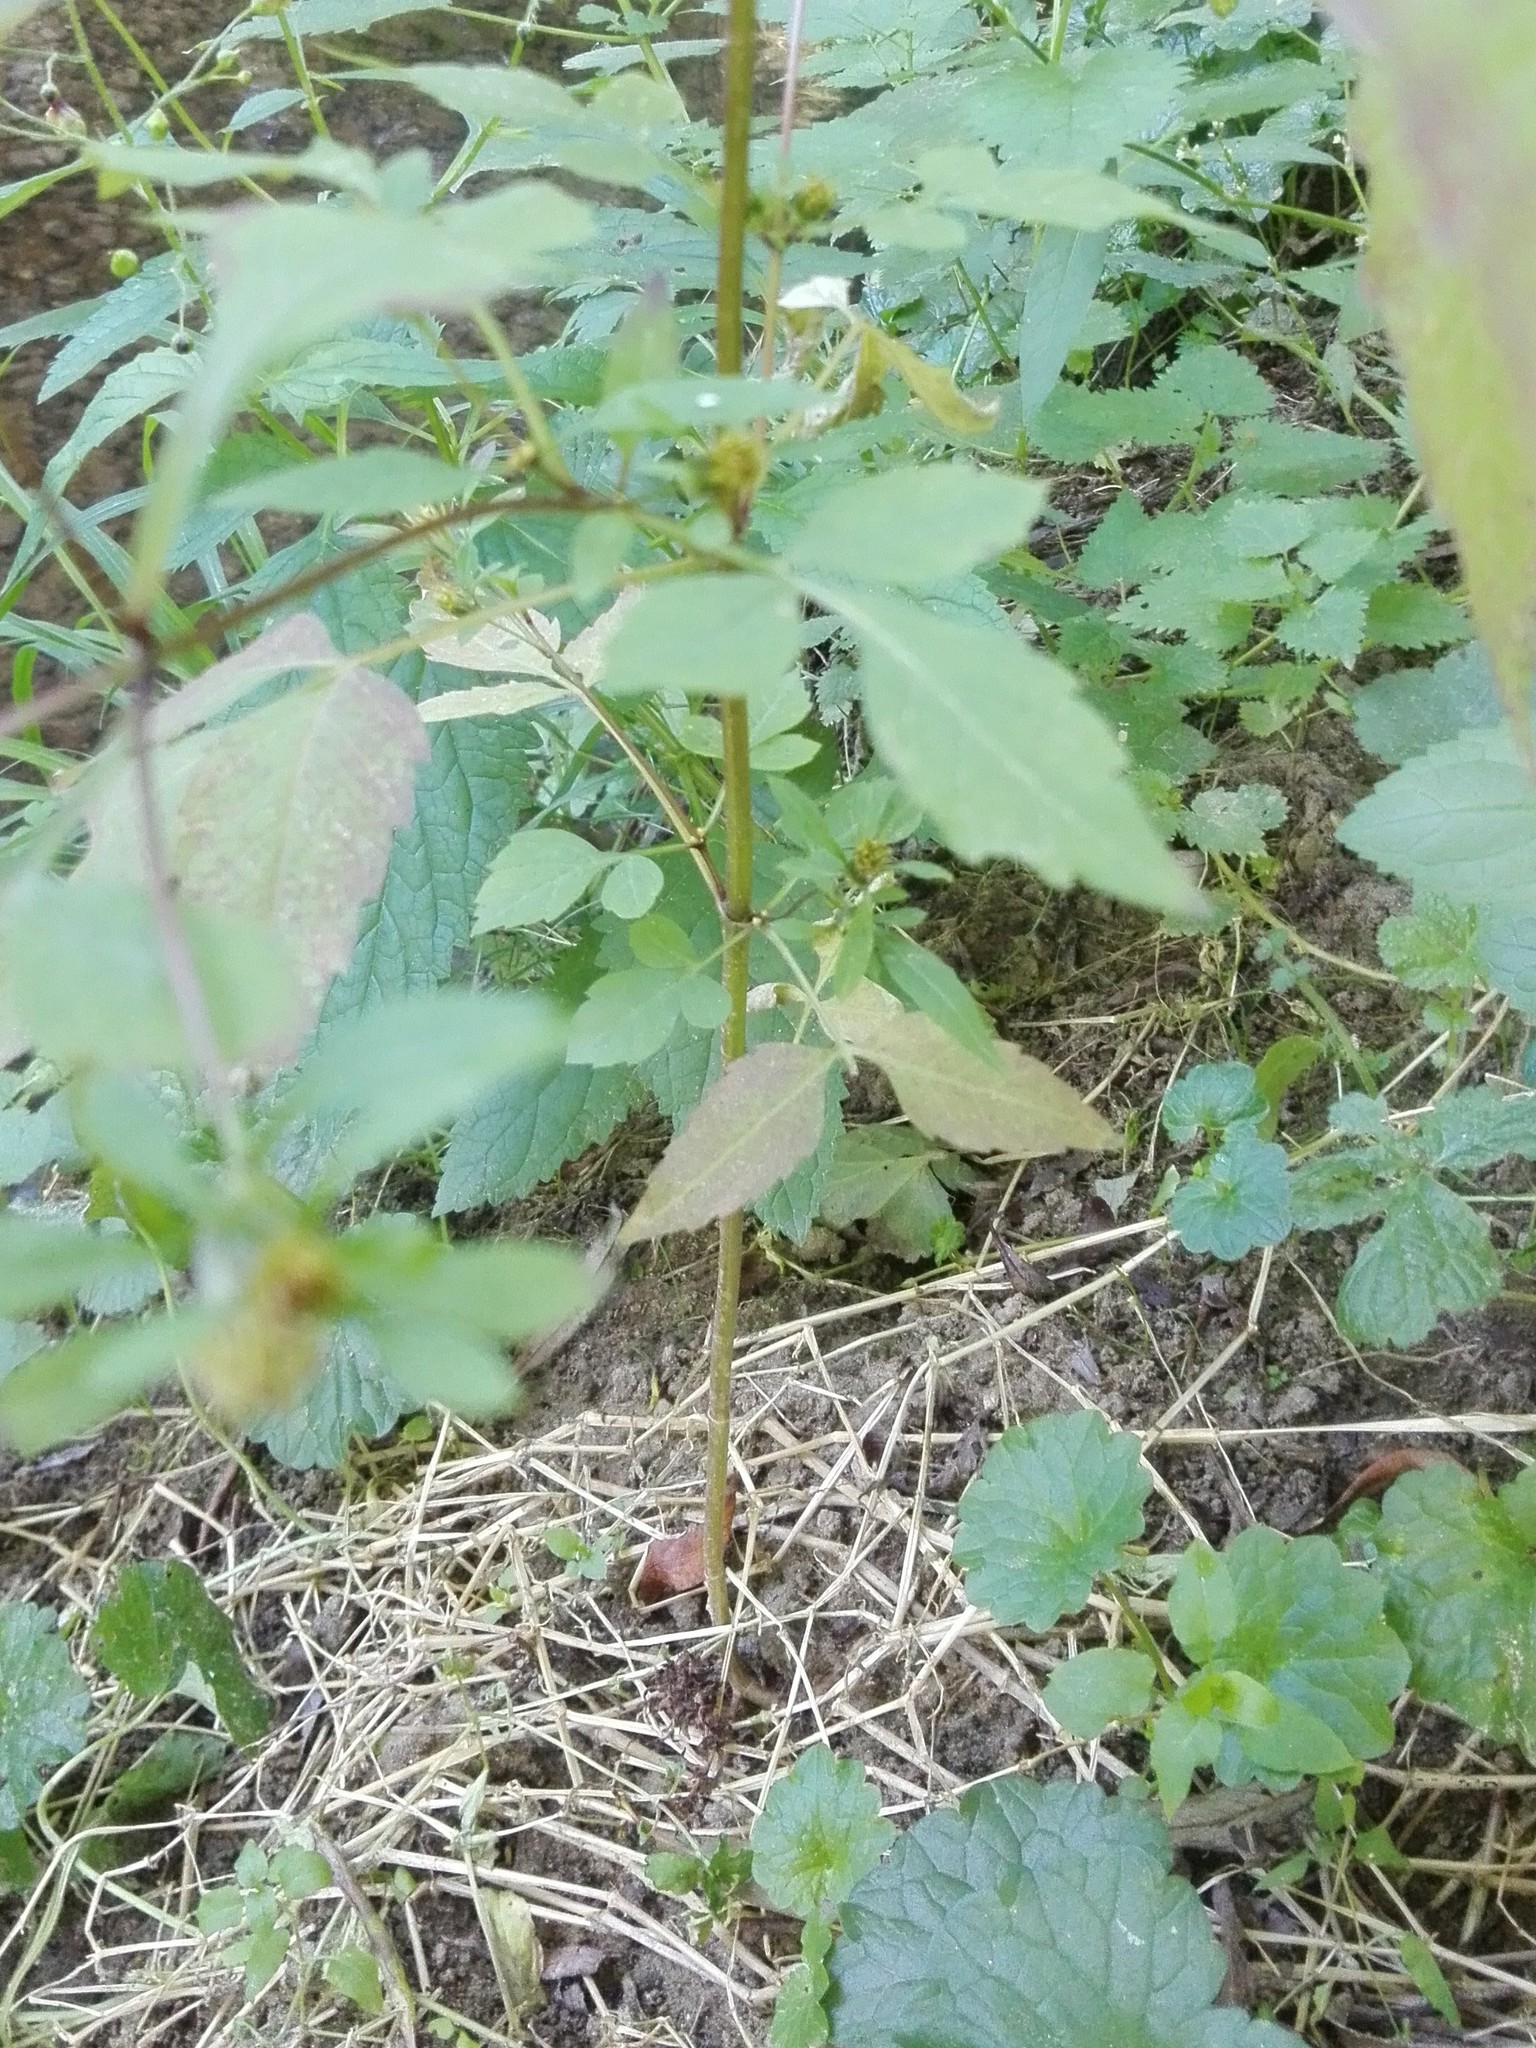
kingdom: Plantae
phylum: Tracheophyta
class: Magnoliopsida
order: Asterales
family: Asteraceae
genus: Bidens
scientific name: Bidens frondosa
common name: Beggarticks
